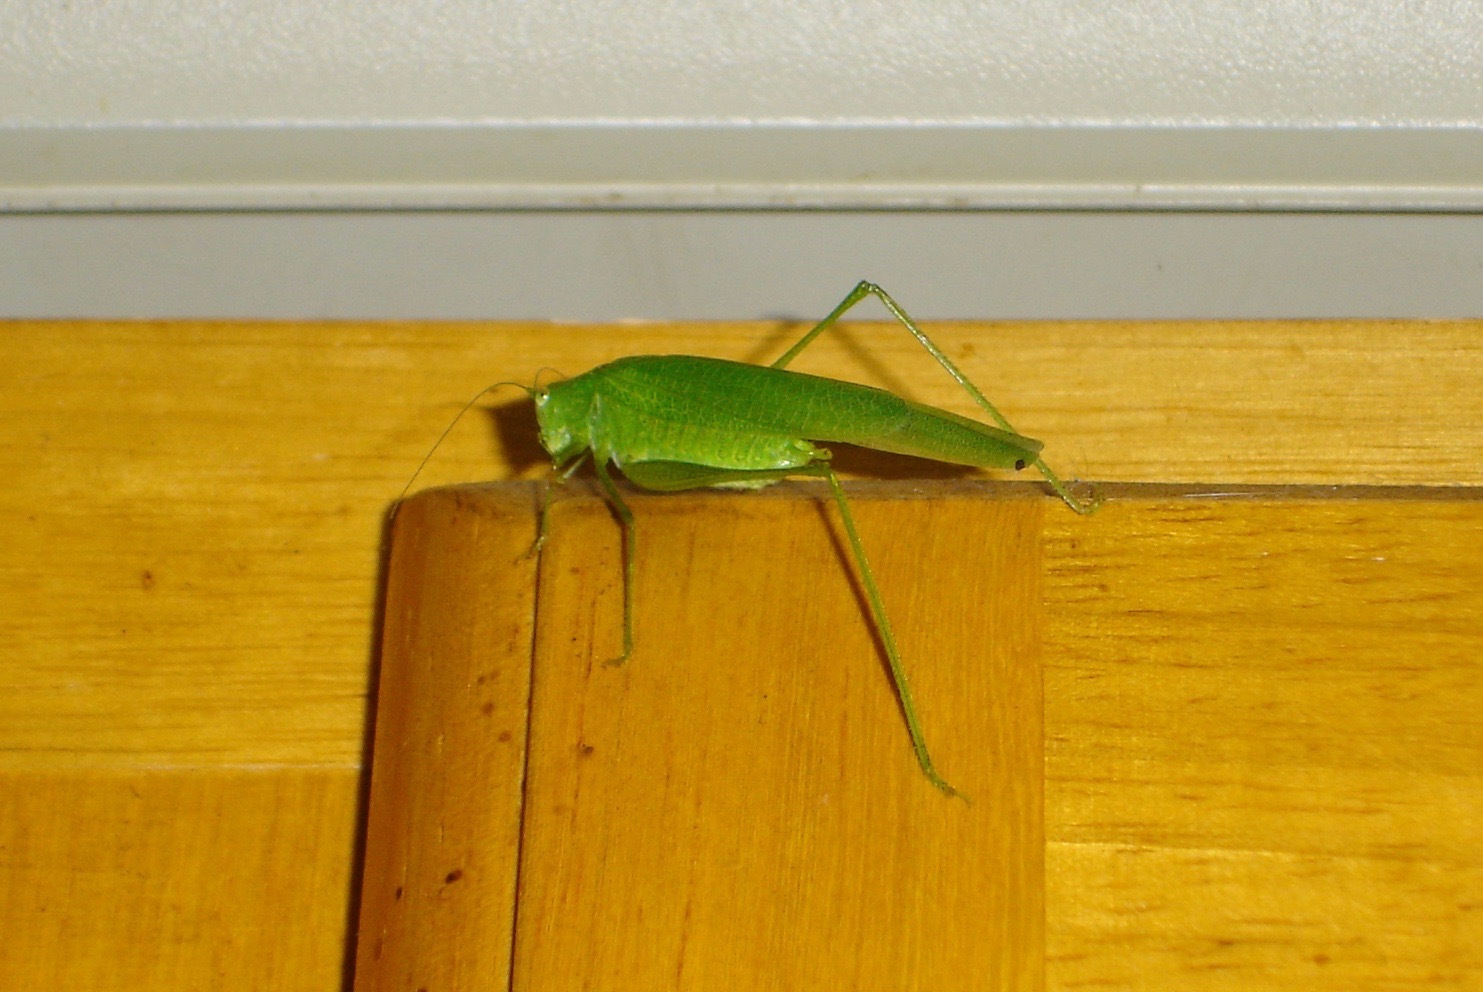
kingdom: Animalia
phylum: Arthropoda
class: Insecta
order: Orthoptera
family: Tettigoniidae
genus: Phaneroptera
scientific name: Phaneroptera nana
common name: Southern sickle bush-cricket
